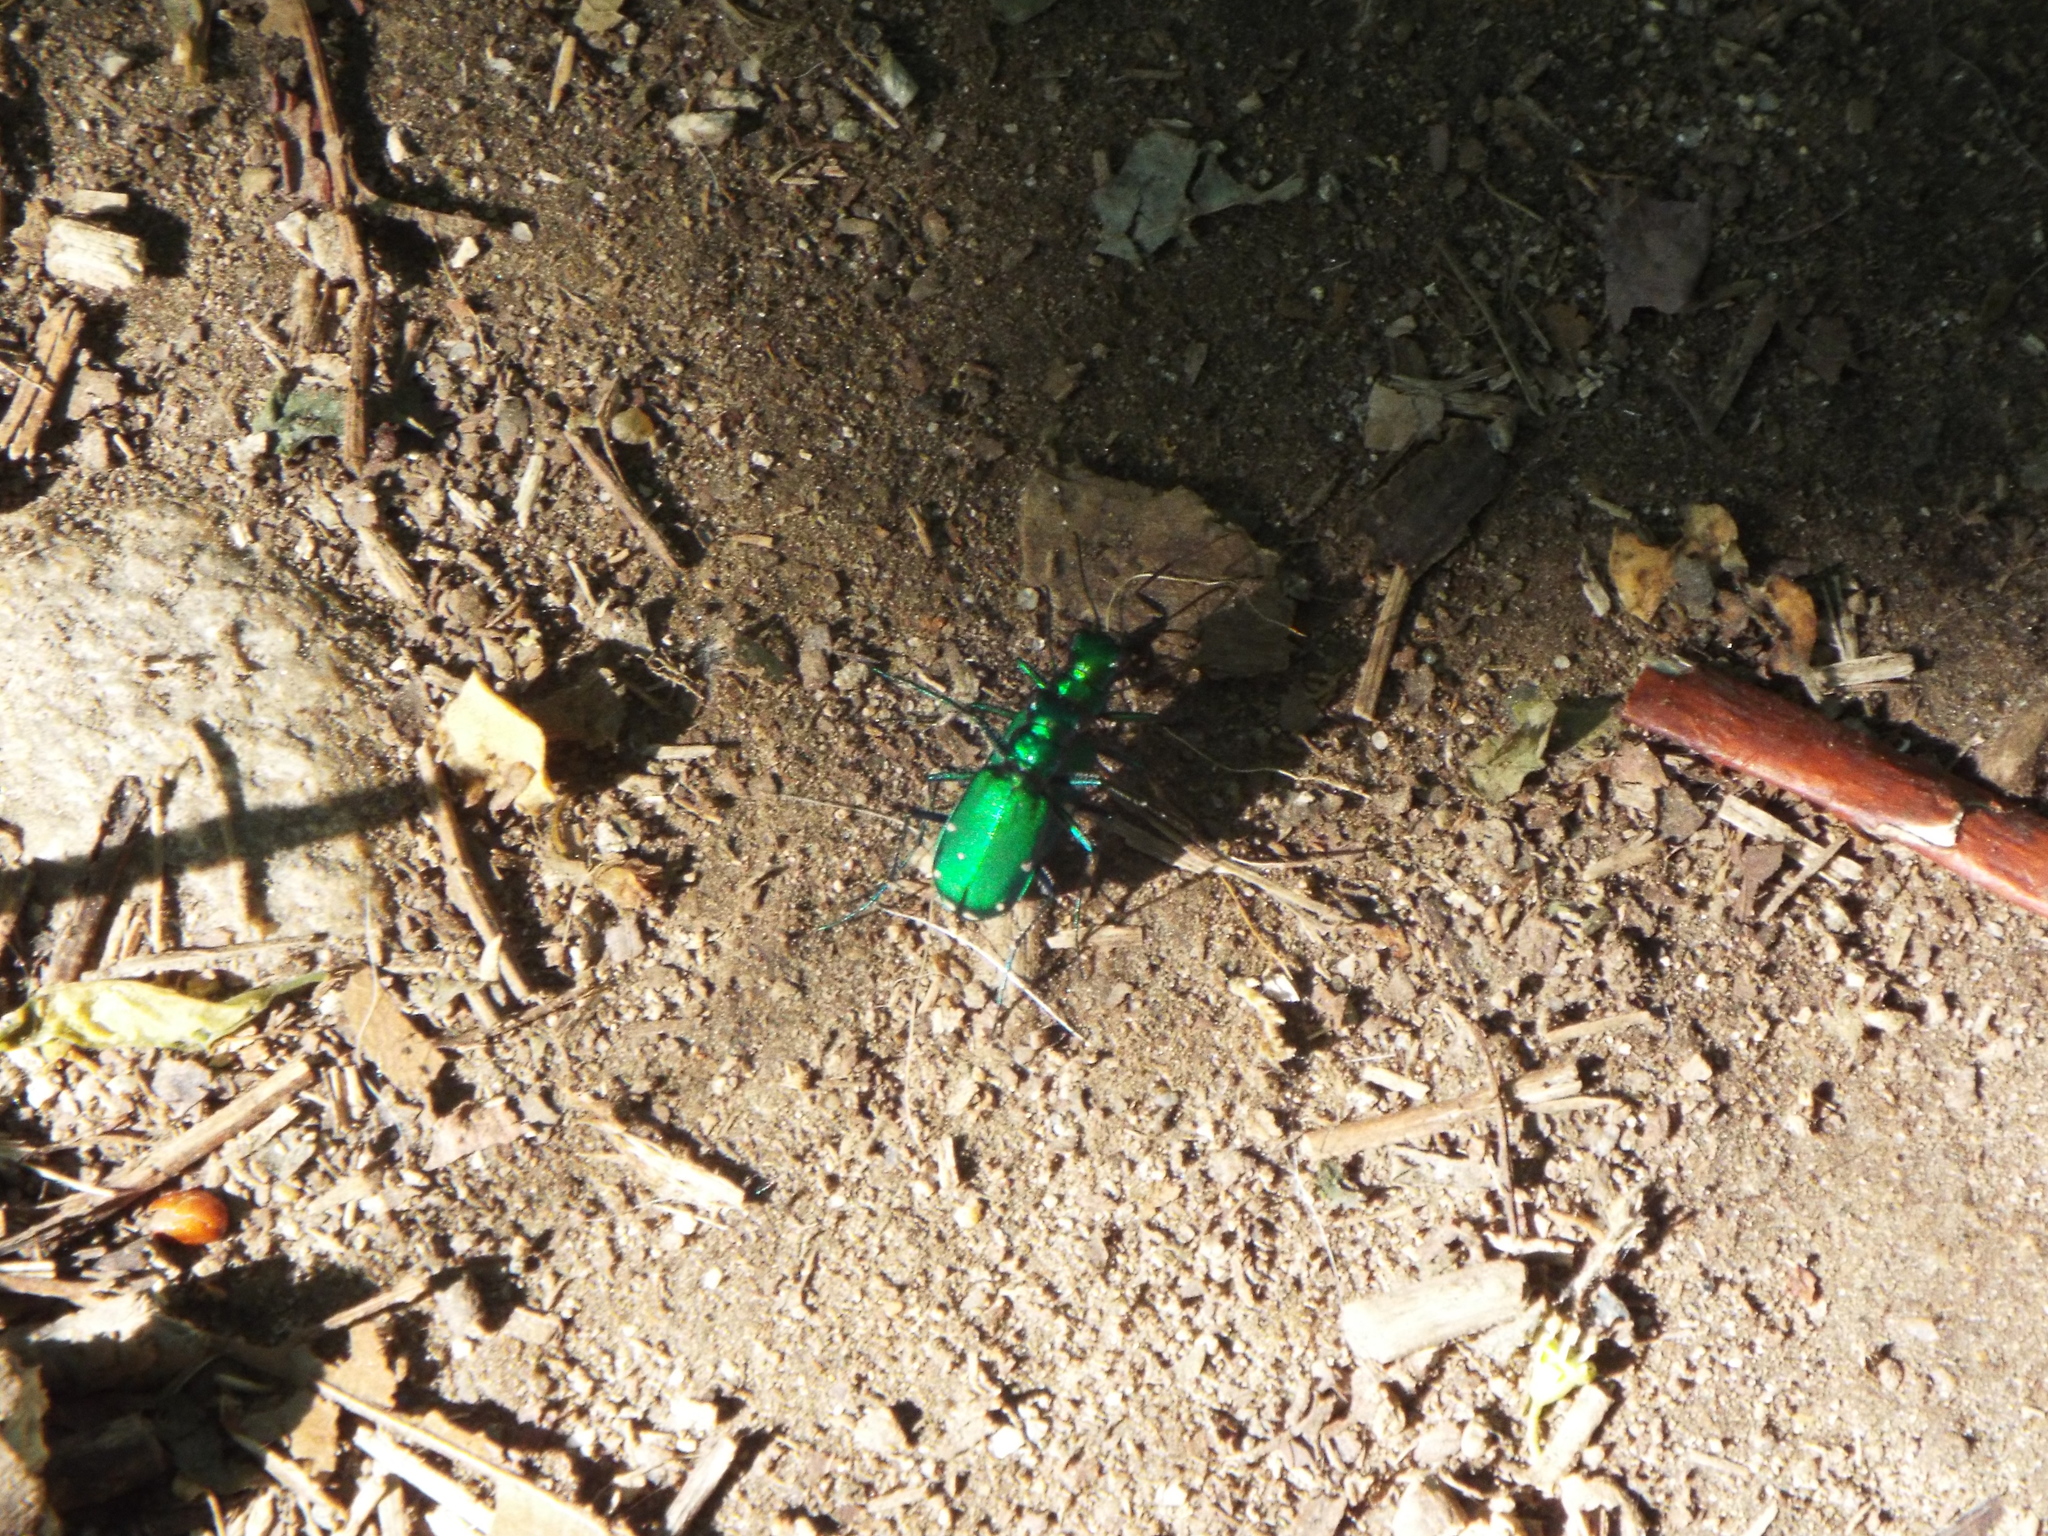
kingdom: Animalia
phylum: Arthropoda
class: Insecta
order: Coleoptera
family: Carabidae
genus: Cicindela
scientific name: Cicindela sexguttata
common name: Six-spotted tiger beetle
